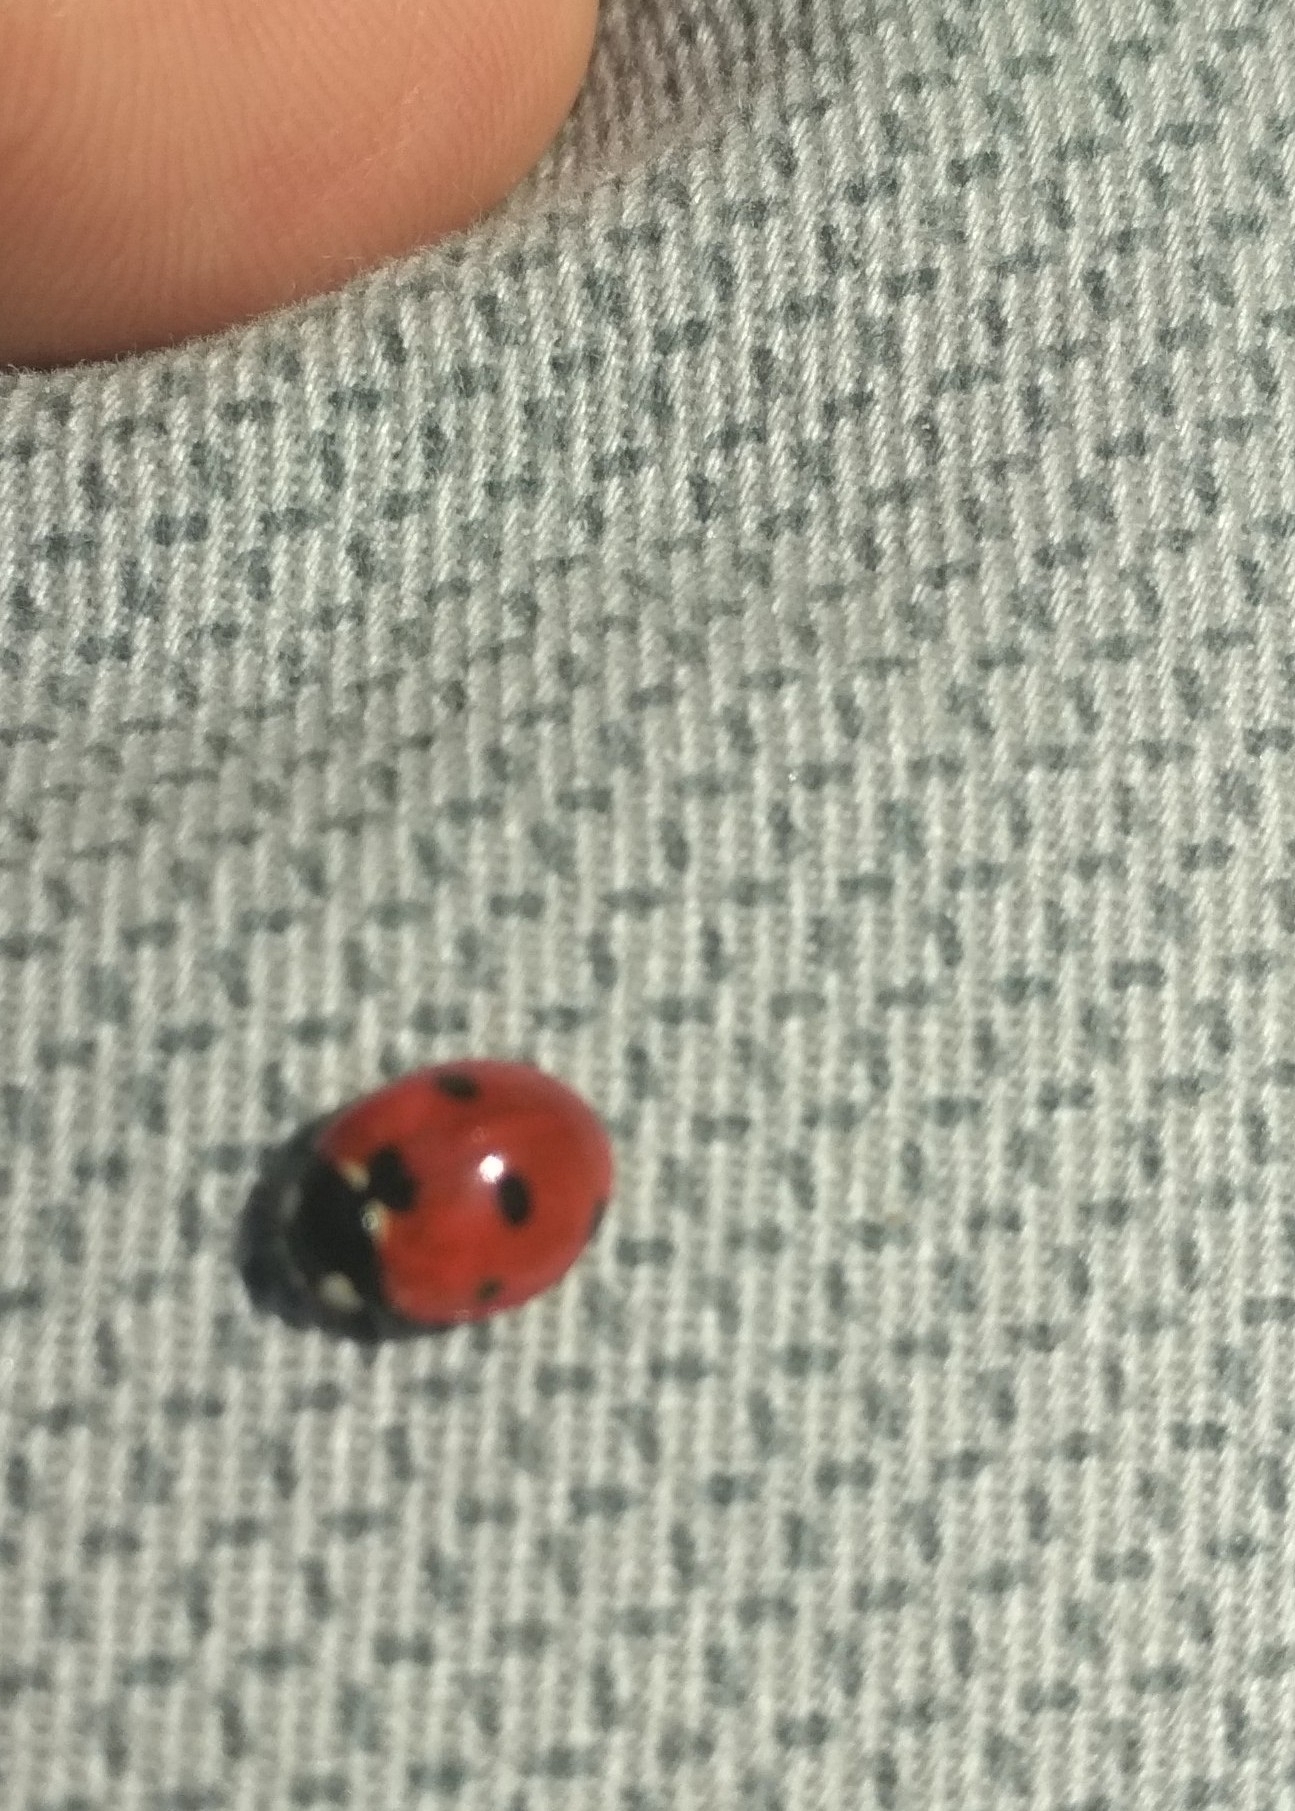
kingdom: Animalia
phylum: Arthropoda
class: Insecta
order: Coleoptera
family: Coccinellidae
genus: Coccinella
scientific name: Coccinella septempunctata
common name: Sevenspotted lady beetle
